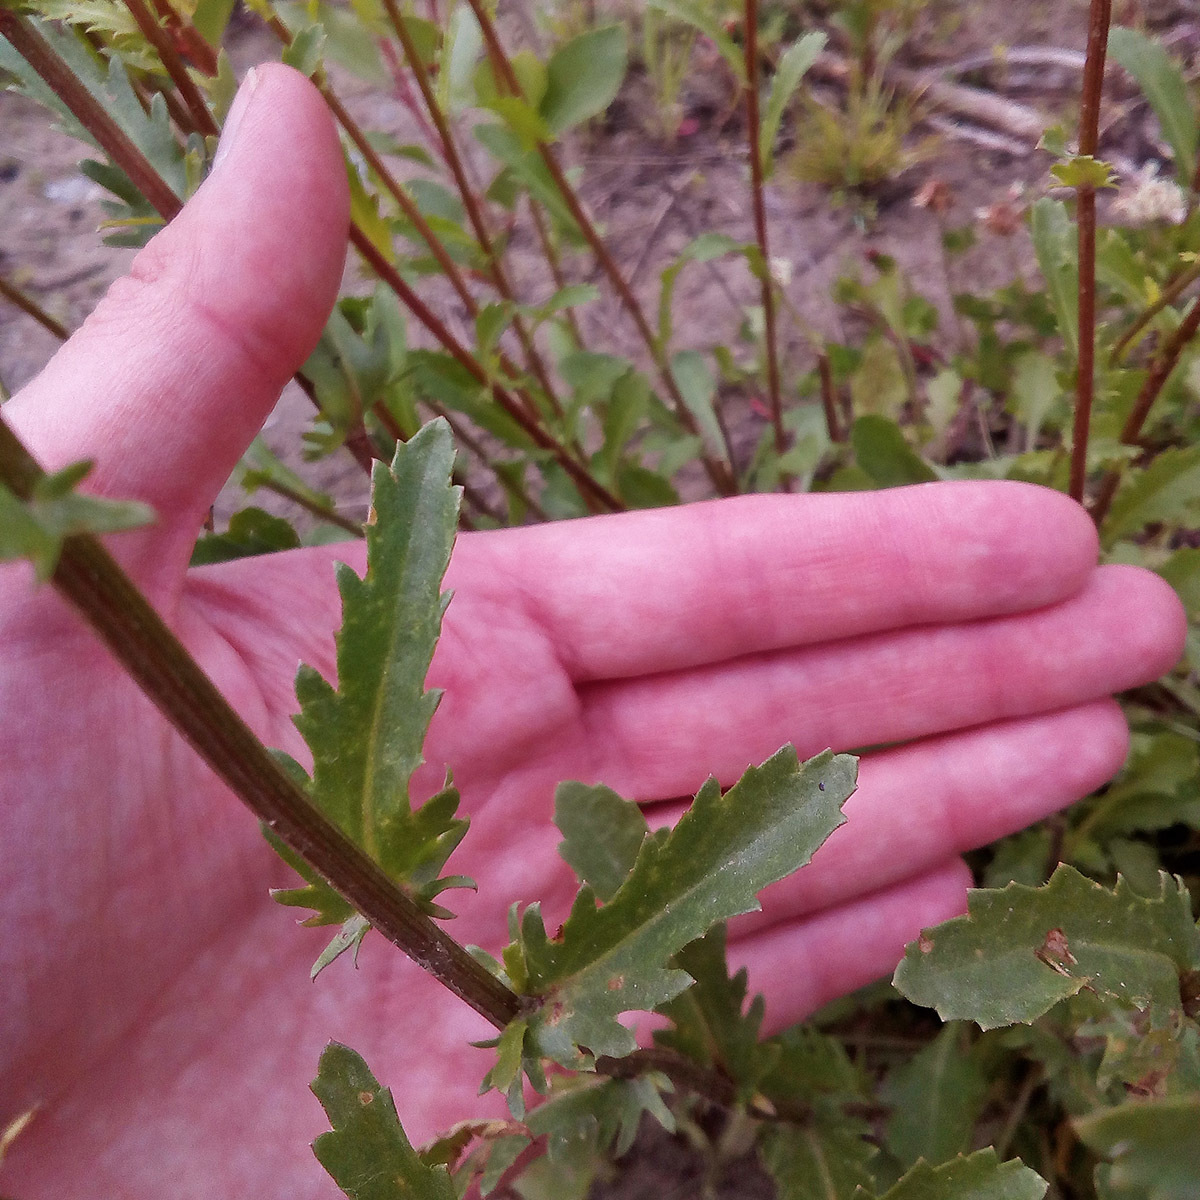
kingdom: Plantae
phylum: Tracheophyta
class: Magnoliopsida
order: Asterales
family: Asteraceae
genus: Leucanthemum
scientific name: Leucanthemum vulgare
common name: Oxeye daisy
